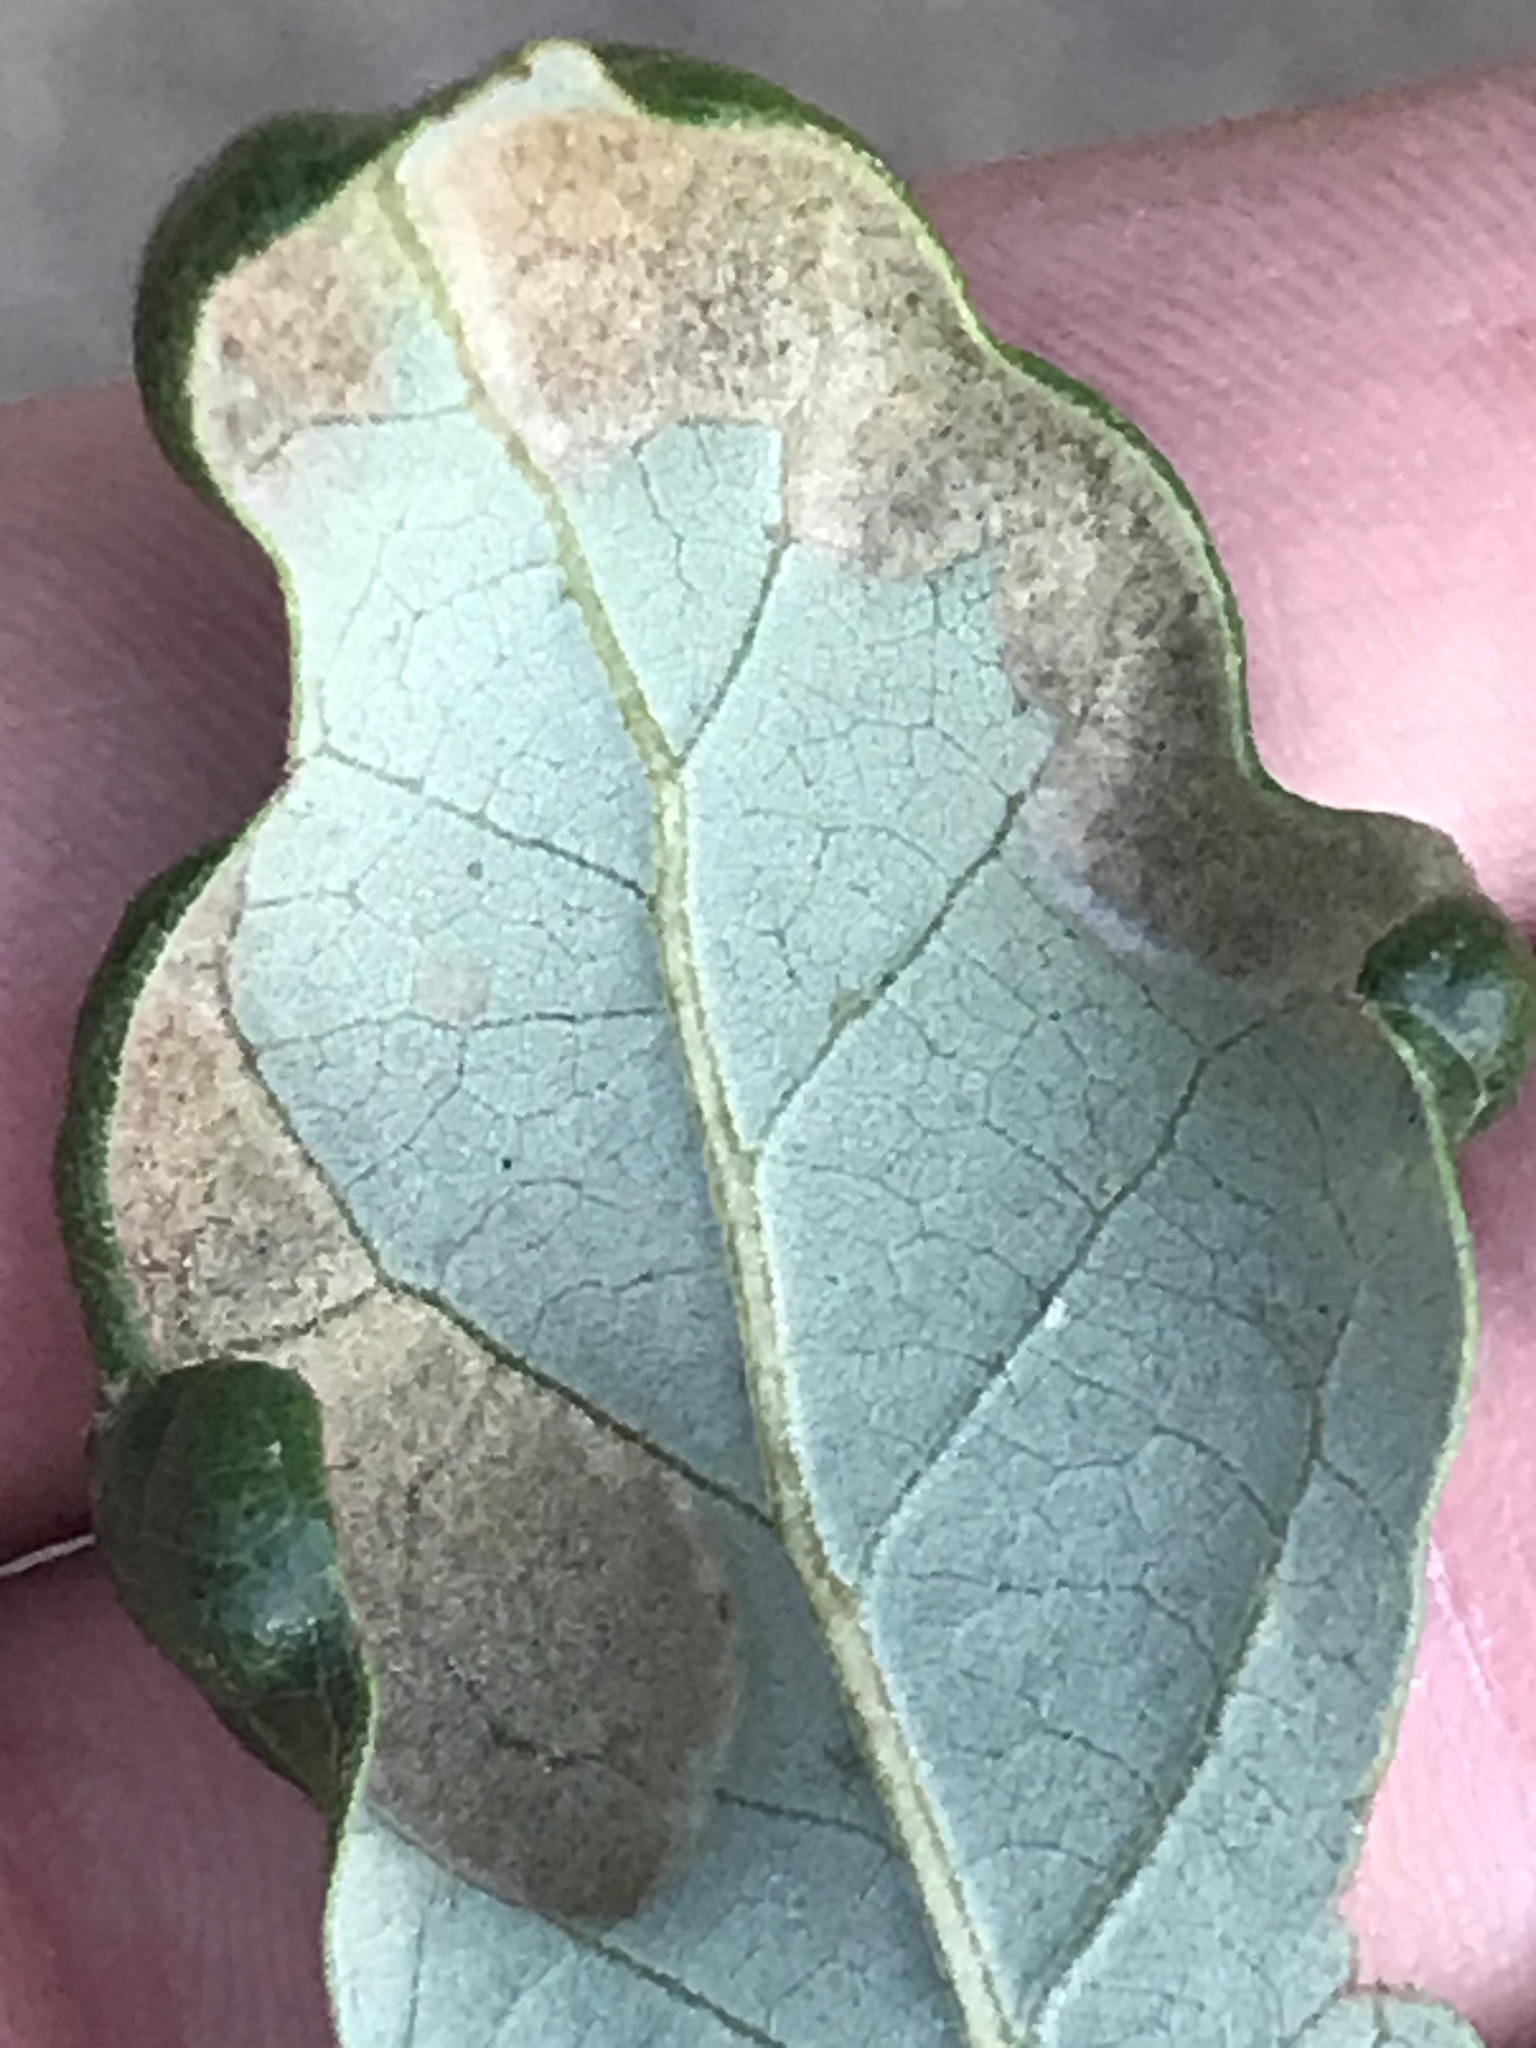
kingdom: Animalia
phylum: Arthropoda
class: Arachnida
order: Trombidiformes
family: Eriophyidae
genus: Aceria
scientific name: Aceria quercina
